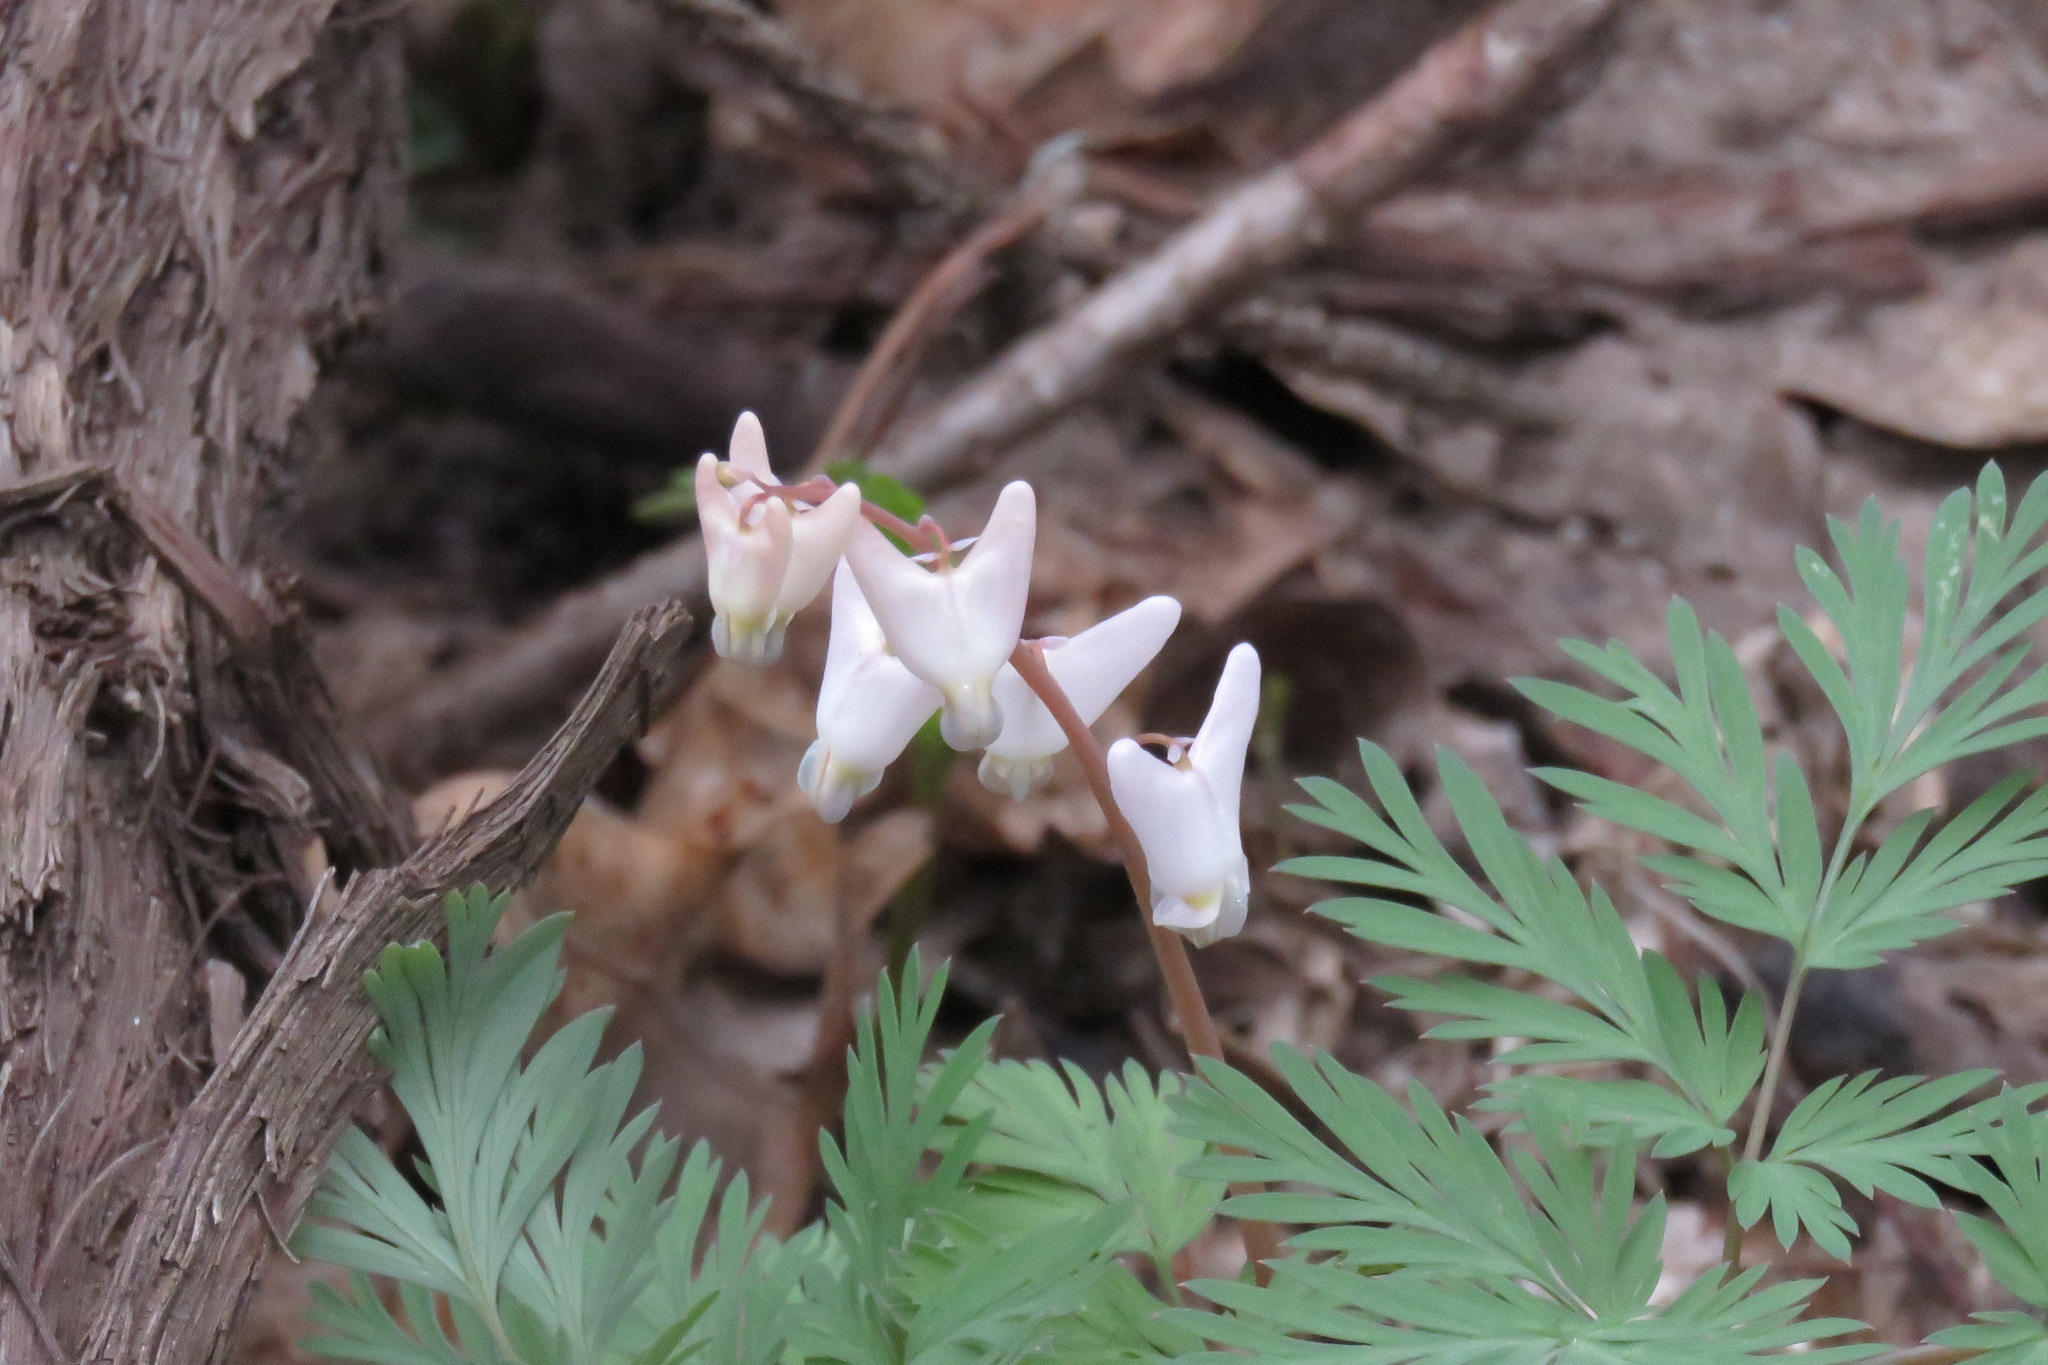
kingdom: Plantae
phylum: Tracheophyta
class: Magnoliopsida
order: Ranunculales
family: Papaveraceae
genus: Dicentra
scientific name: Dicentra cucullaria
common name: Dutchman's breeches
